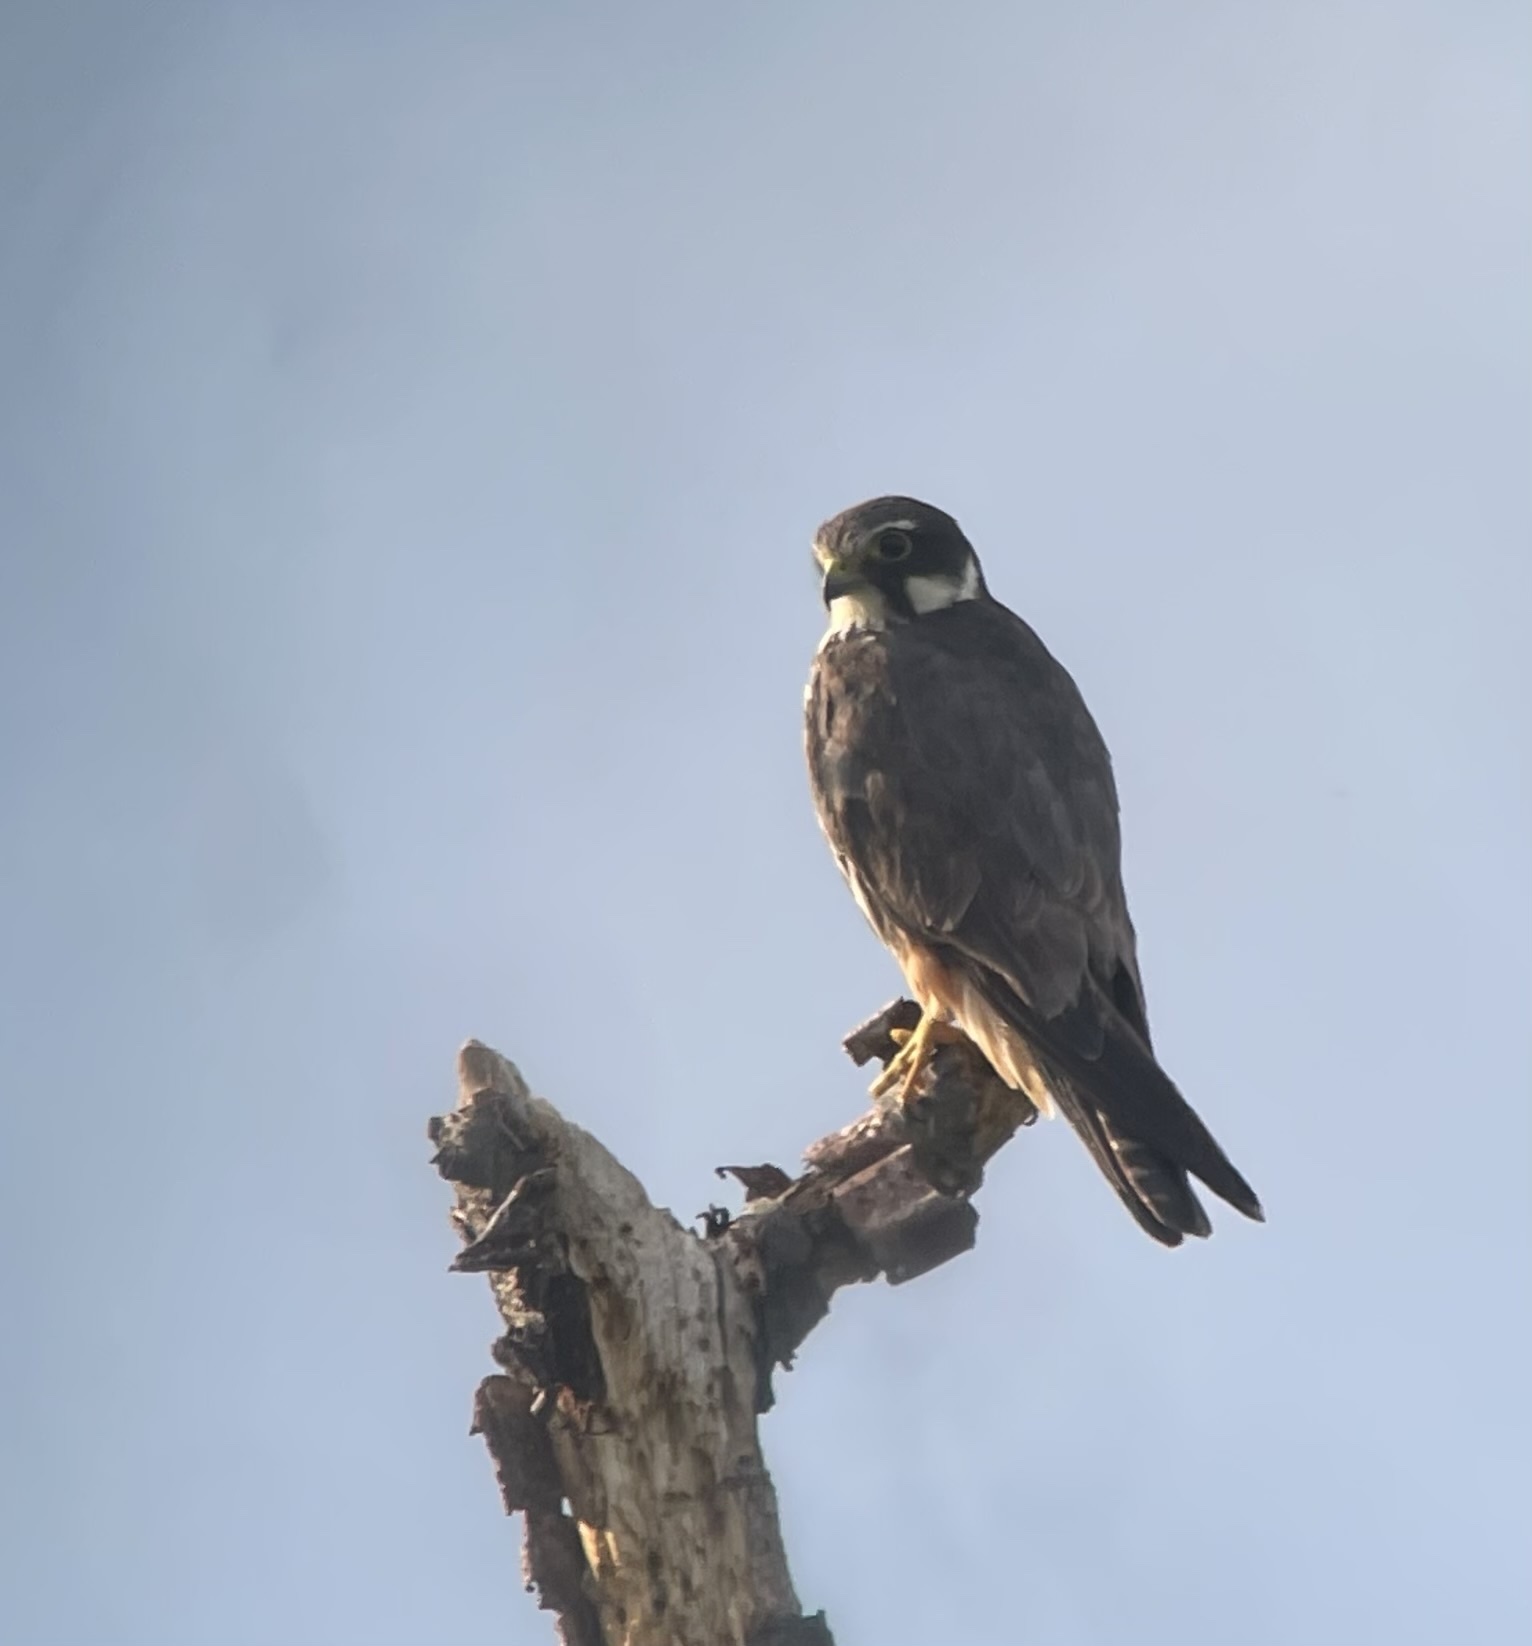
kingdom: Animalia
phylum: Chordata
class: Aves
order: Falconiformes
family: Falconidae
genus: Falco
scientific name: Falco subbuteo
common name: Eurasian hobby
